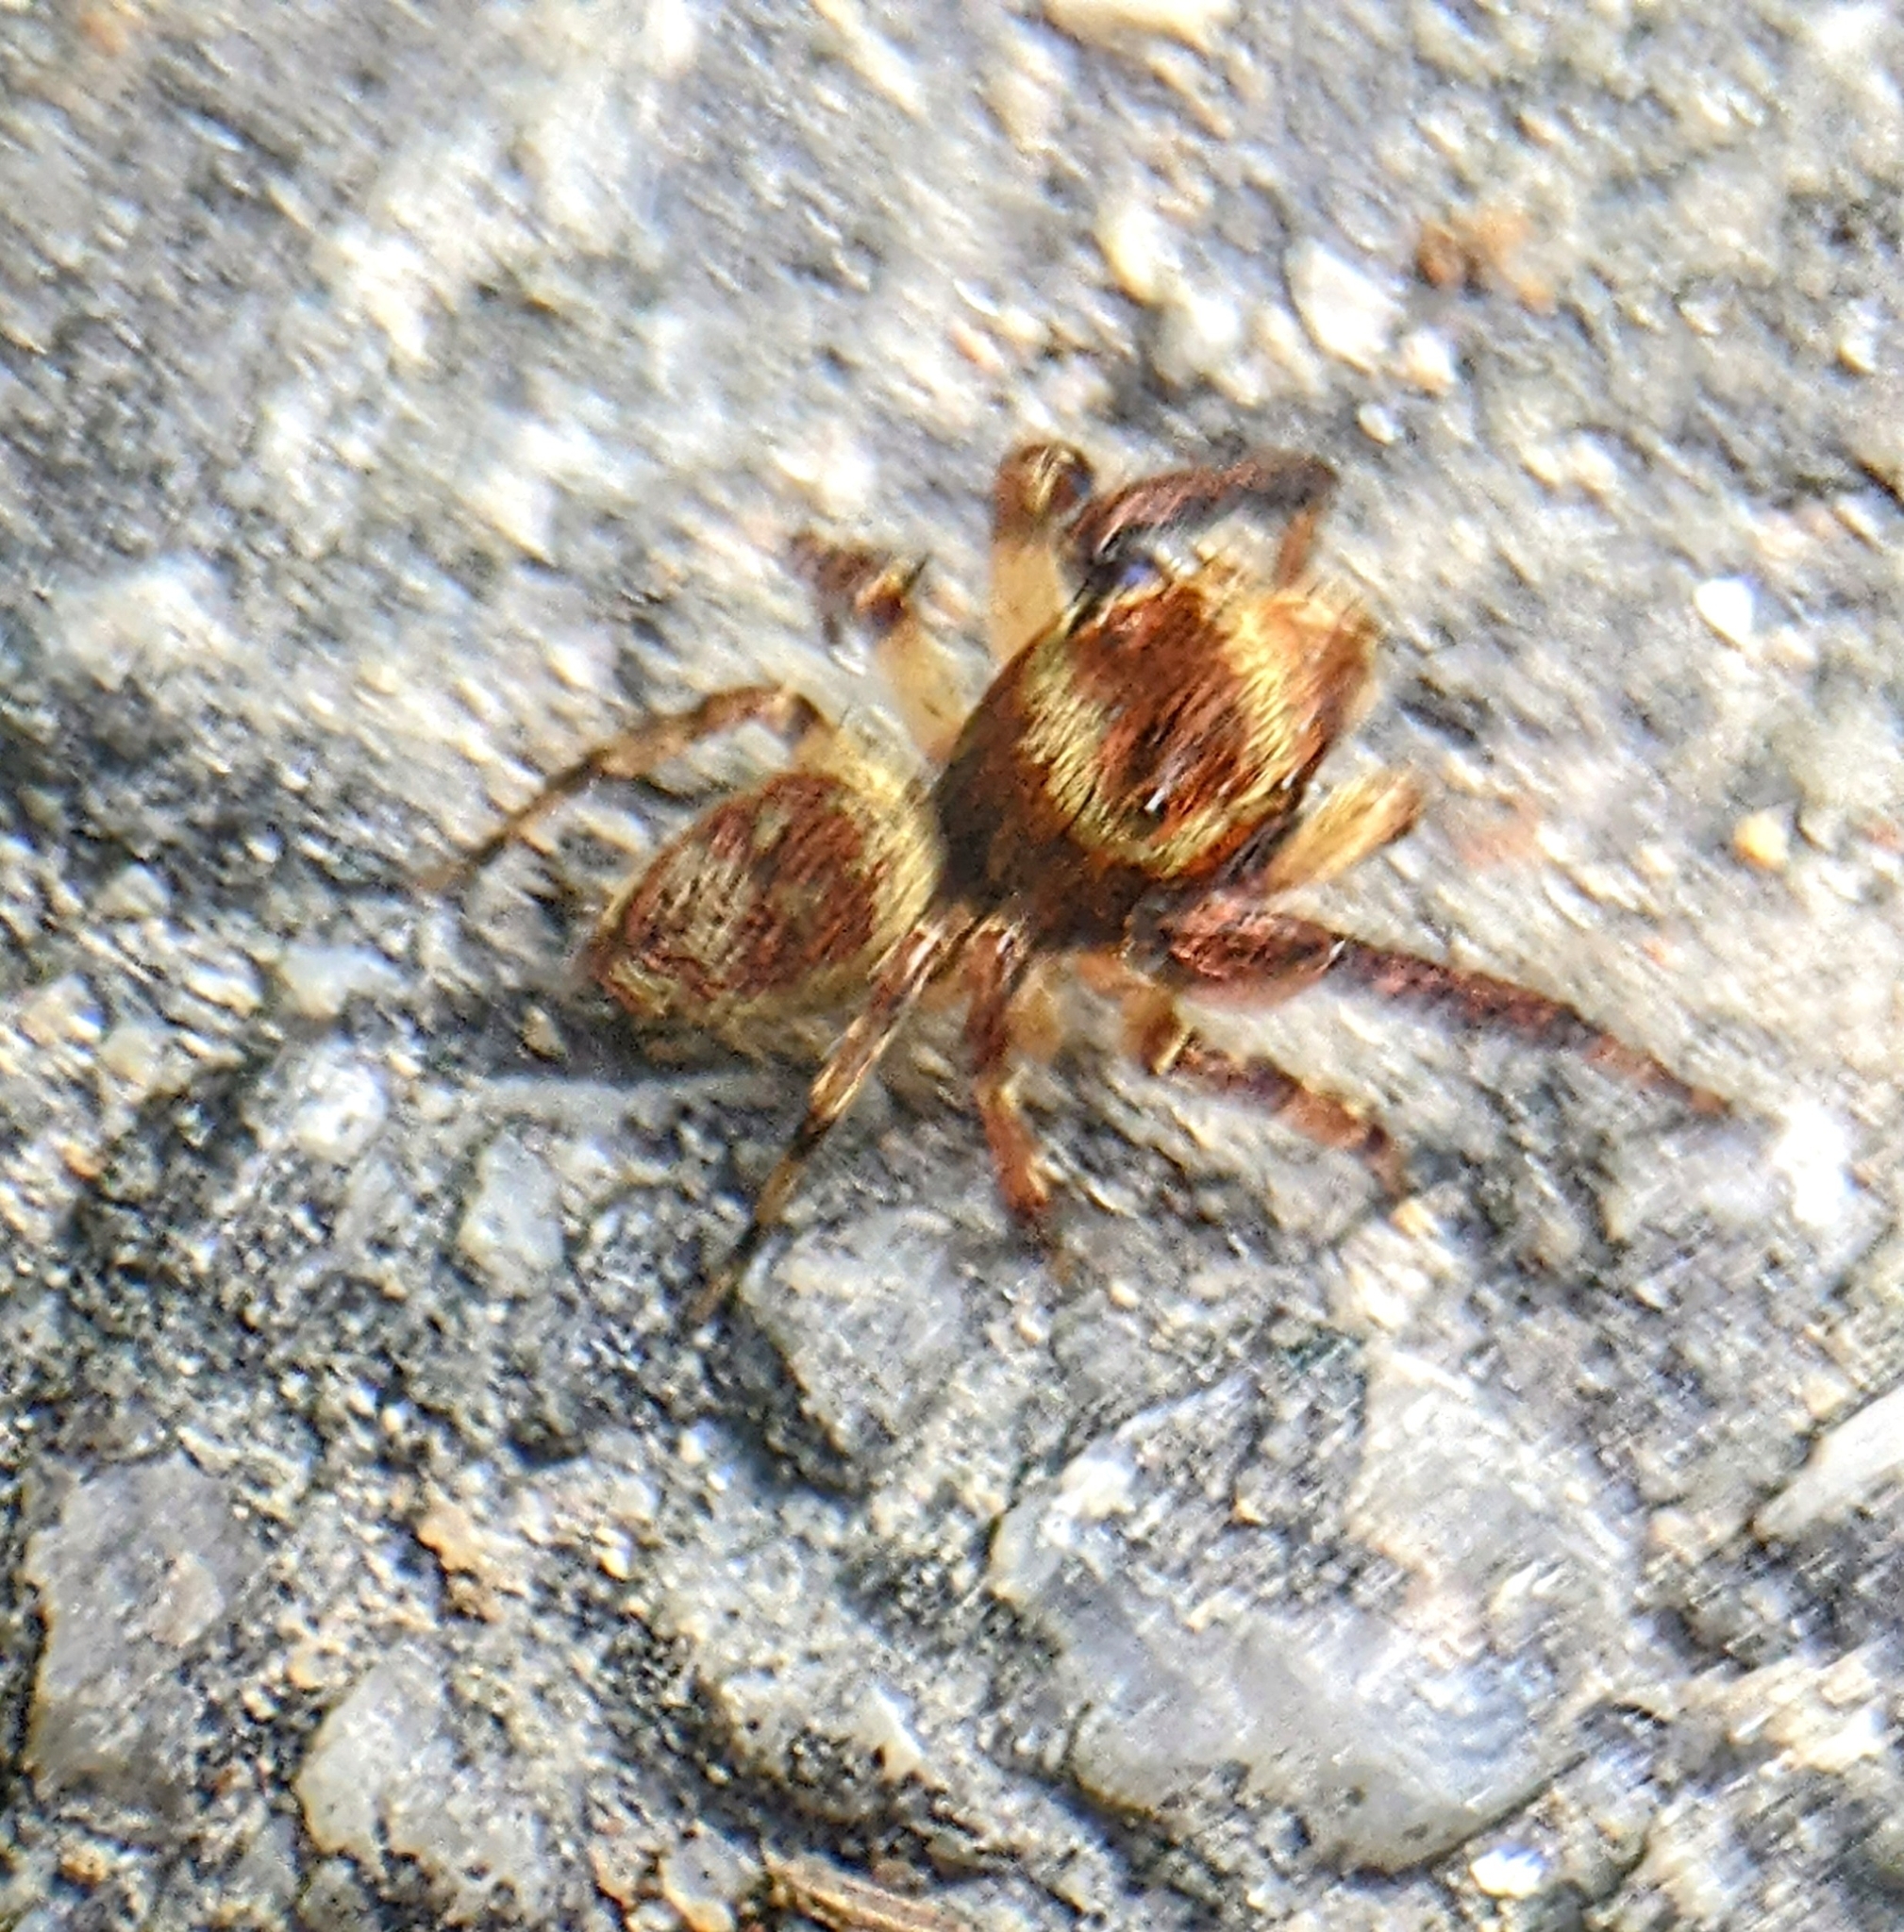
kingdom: Animalia
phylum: Arthropoda
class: Arachnida
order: Araneae
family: Salticidae
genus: Idastrandia
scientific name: Idastrandia orientalis
